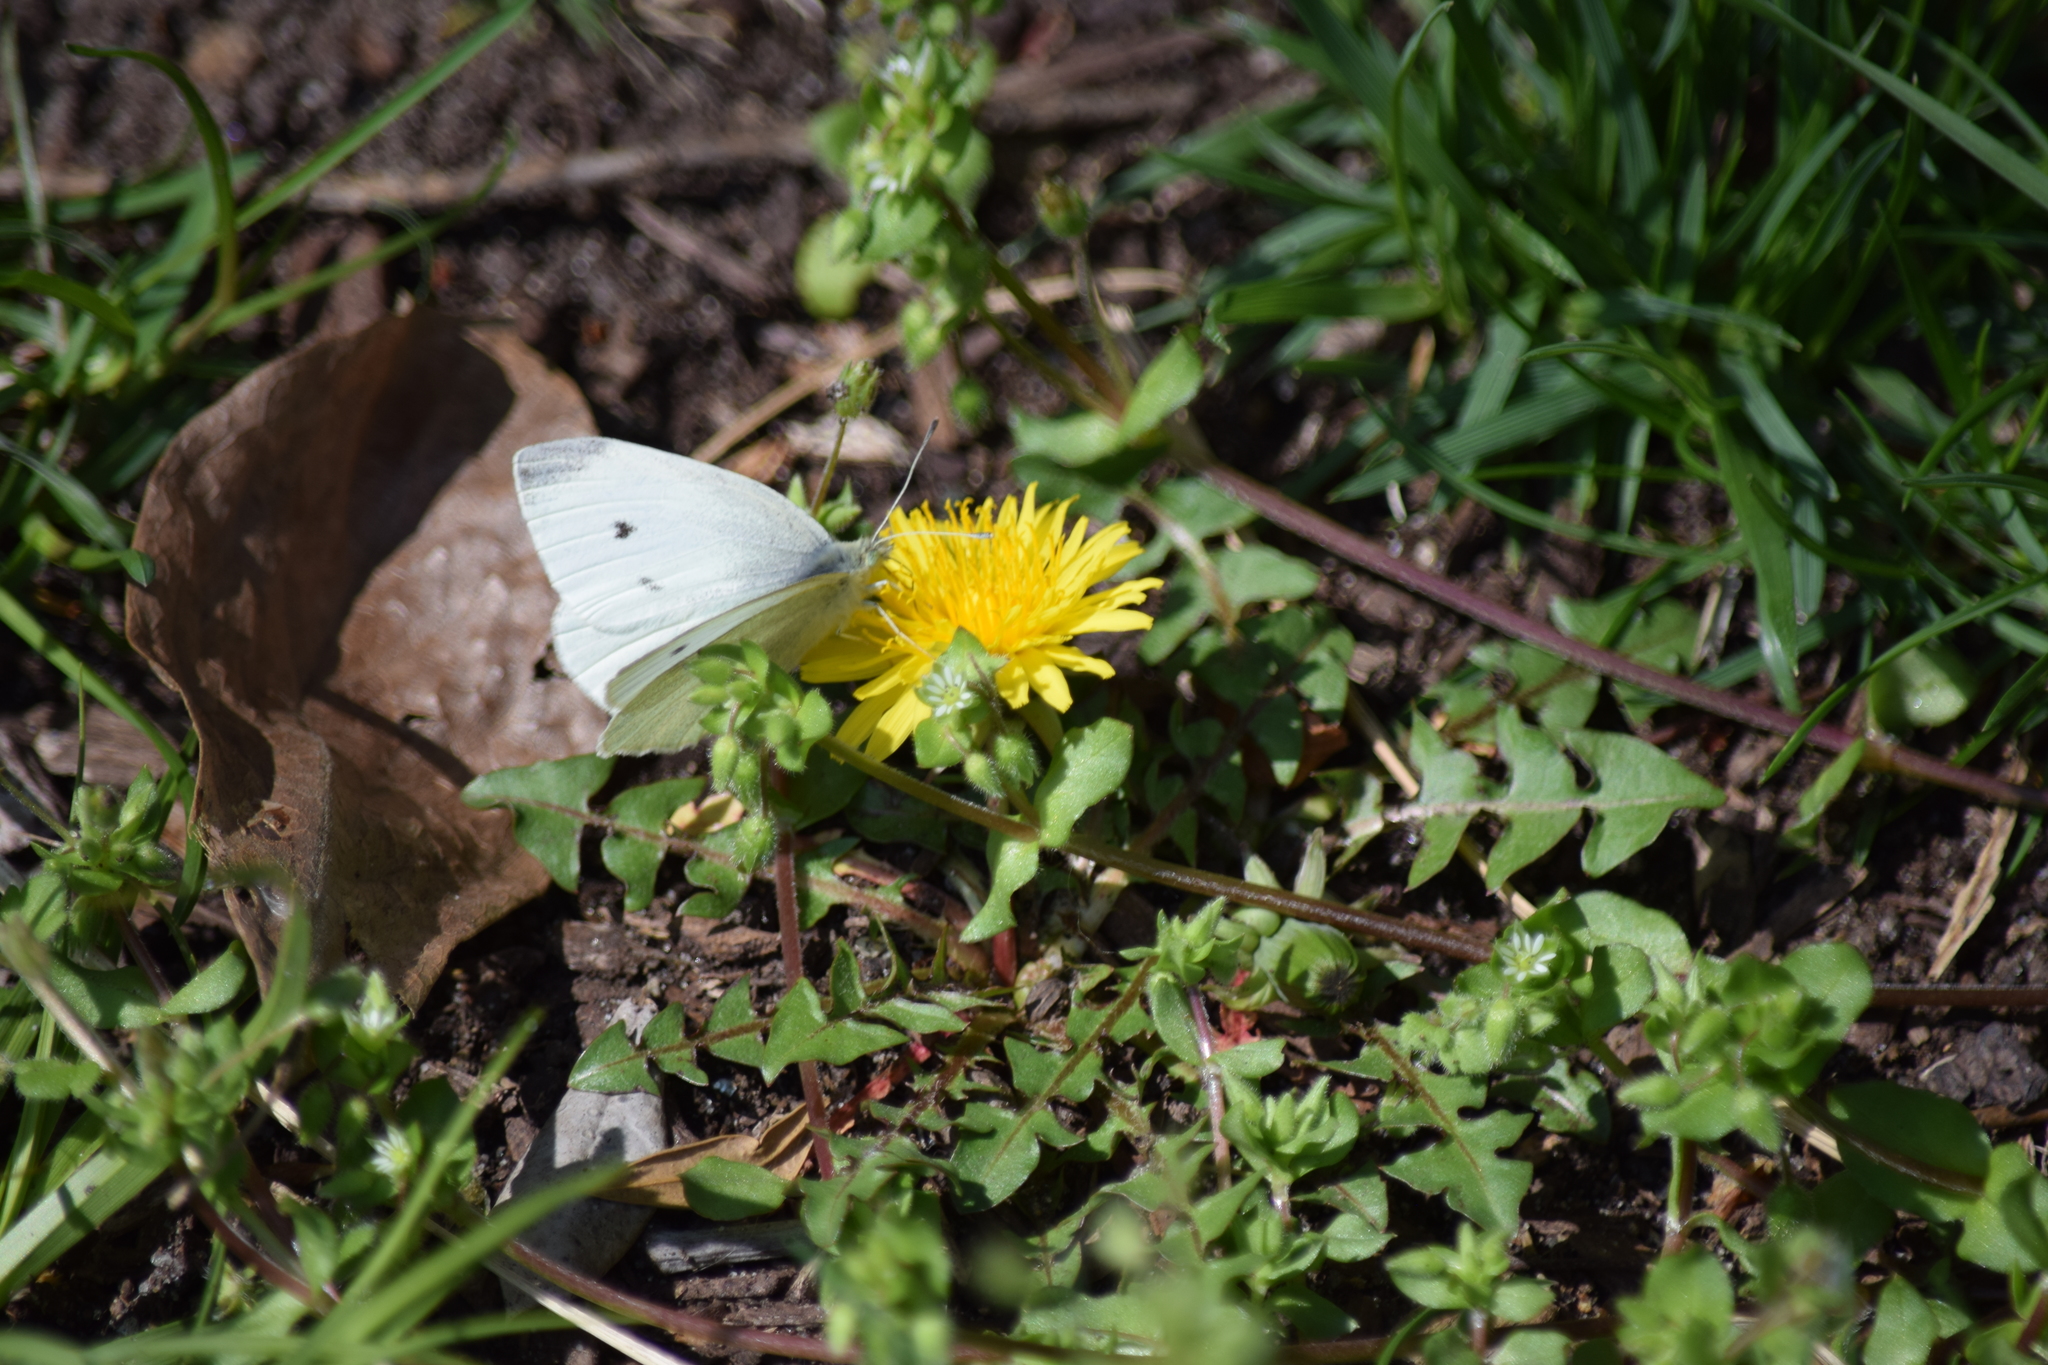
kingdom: Animalia
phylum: Arthropoda
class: Insecta
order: Lepidoptera
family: Pieridae
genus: Pieris
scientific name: Pieris rapae
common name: Small white
